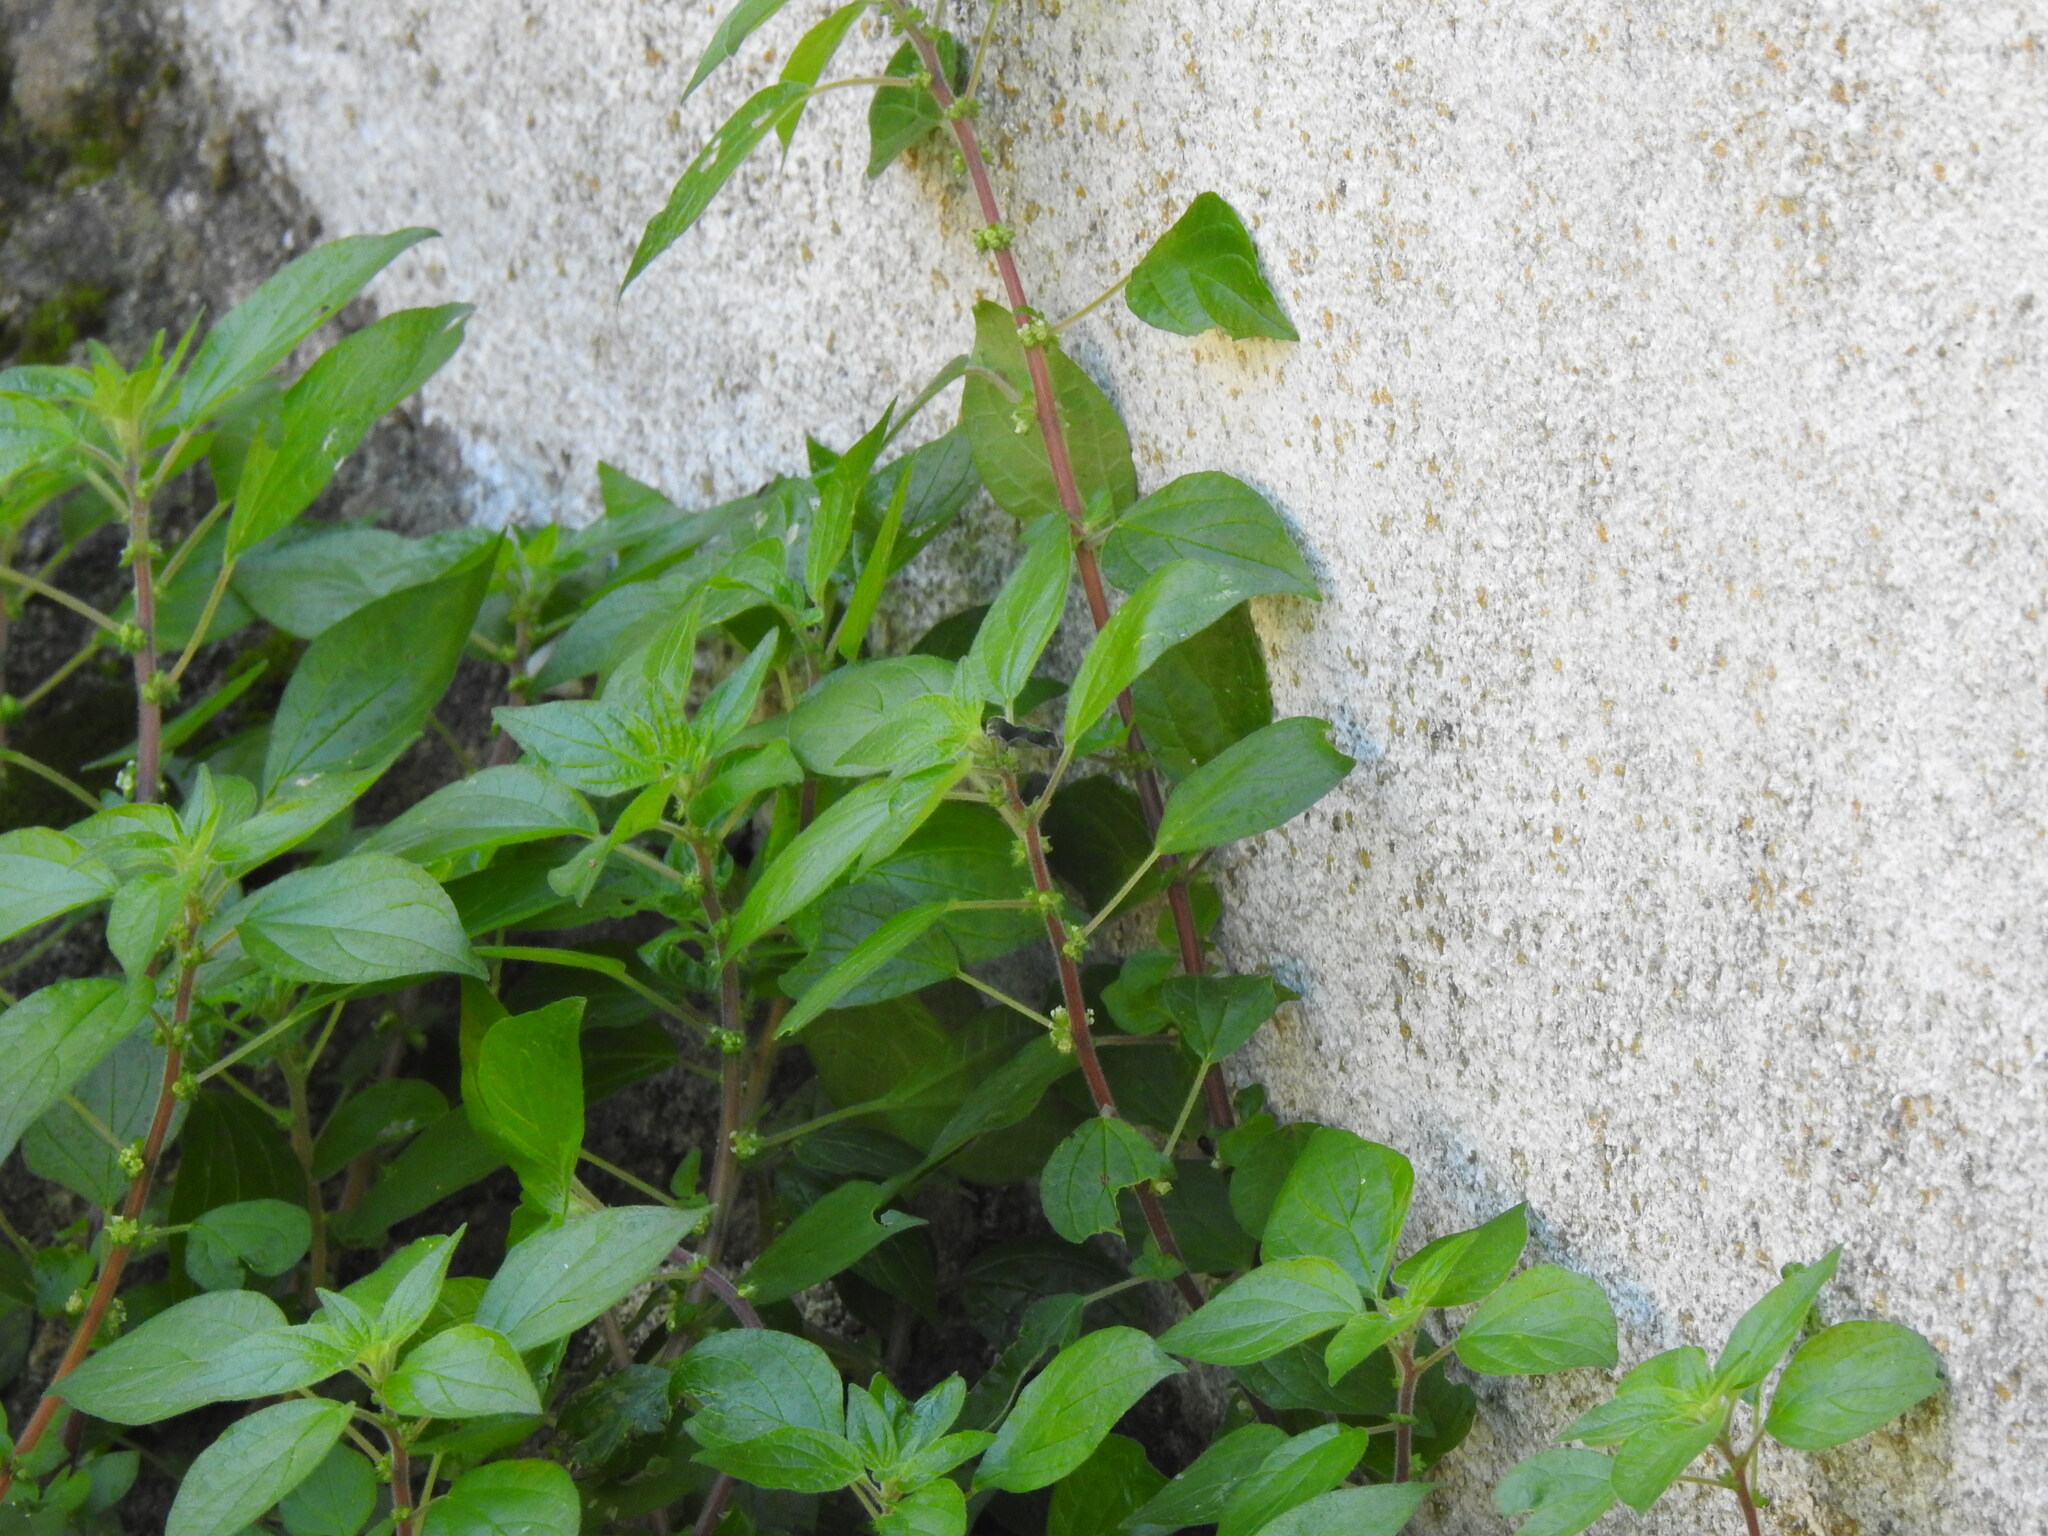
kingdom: Plantae
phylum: Tracheophyta
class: Magnoliopsida
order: Rosales
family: Urticaceae
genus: Parietaria
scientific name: Parietaria judaica
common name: Pellitory-of-the-wall
